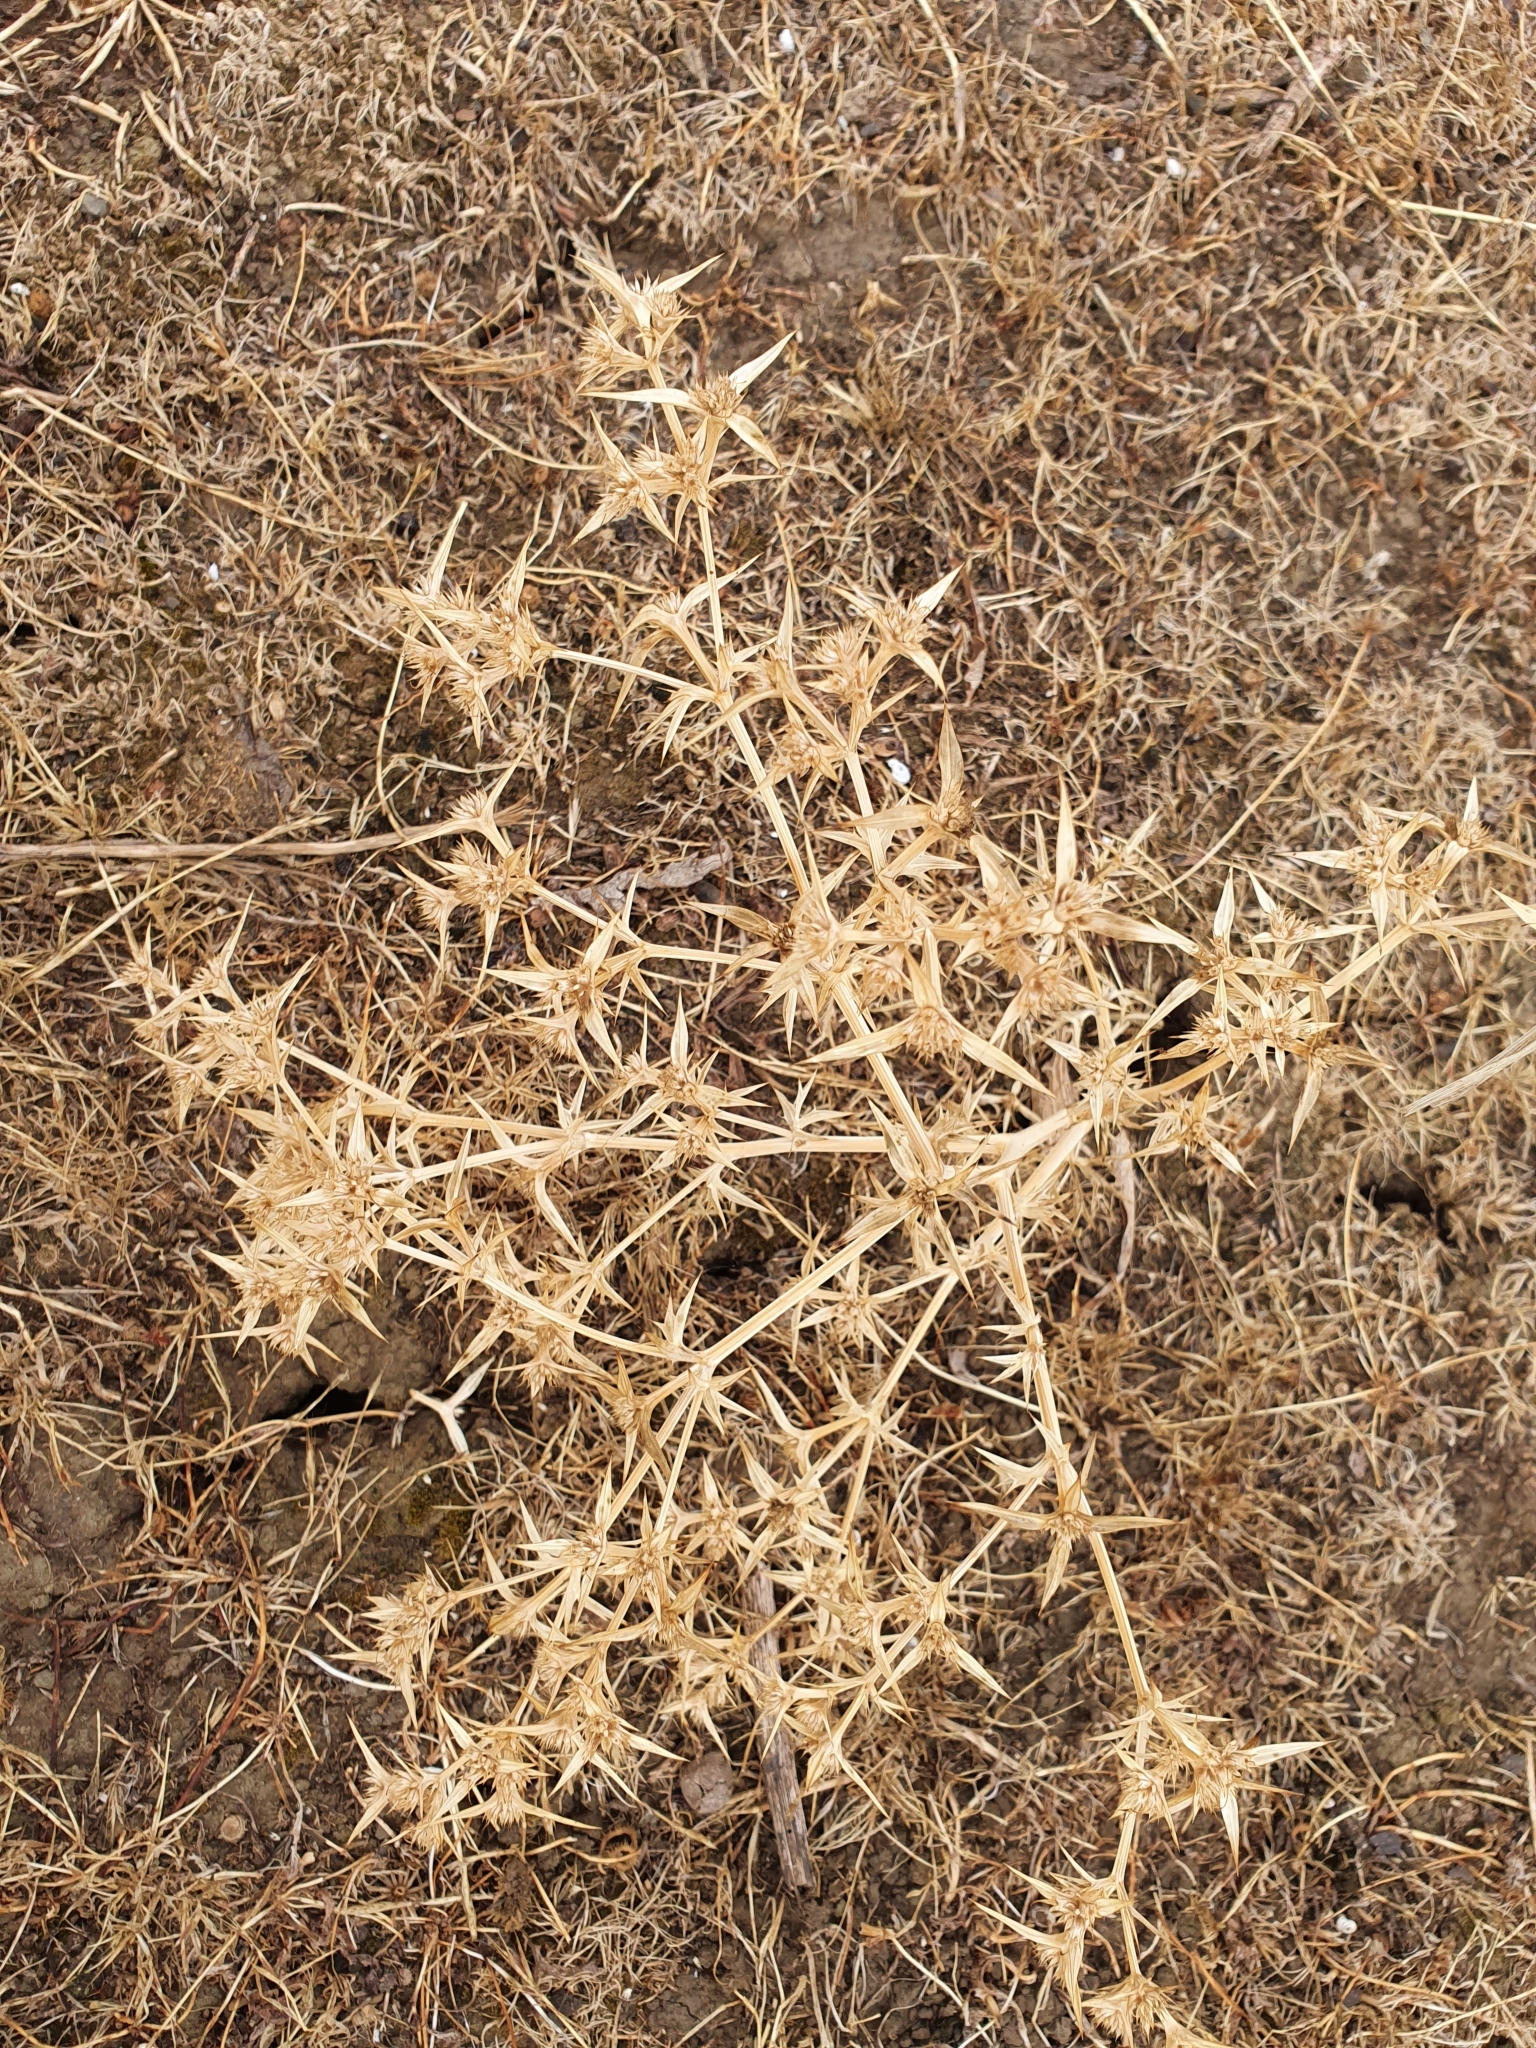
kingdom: Plantae
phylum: Tracheophyta
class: Magnoliopsida
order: Apiales
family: Apiaceae
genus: Eryngium
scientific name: Eryngium triquetrum
